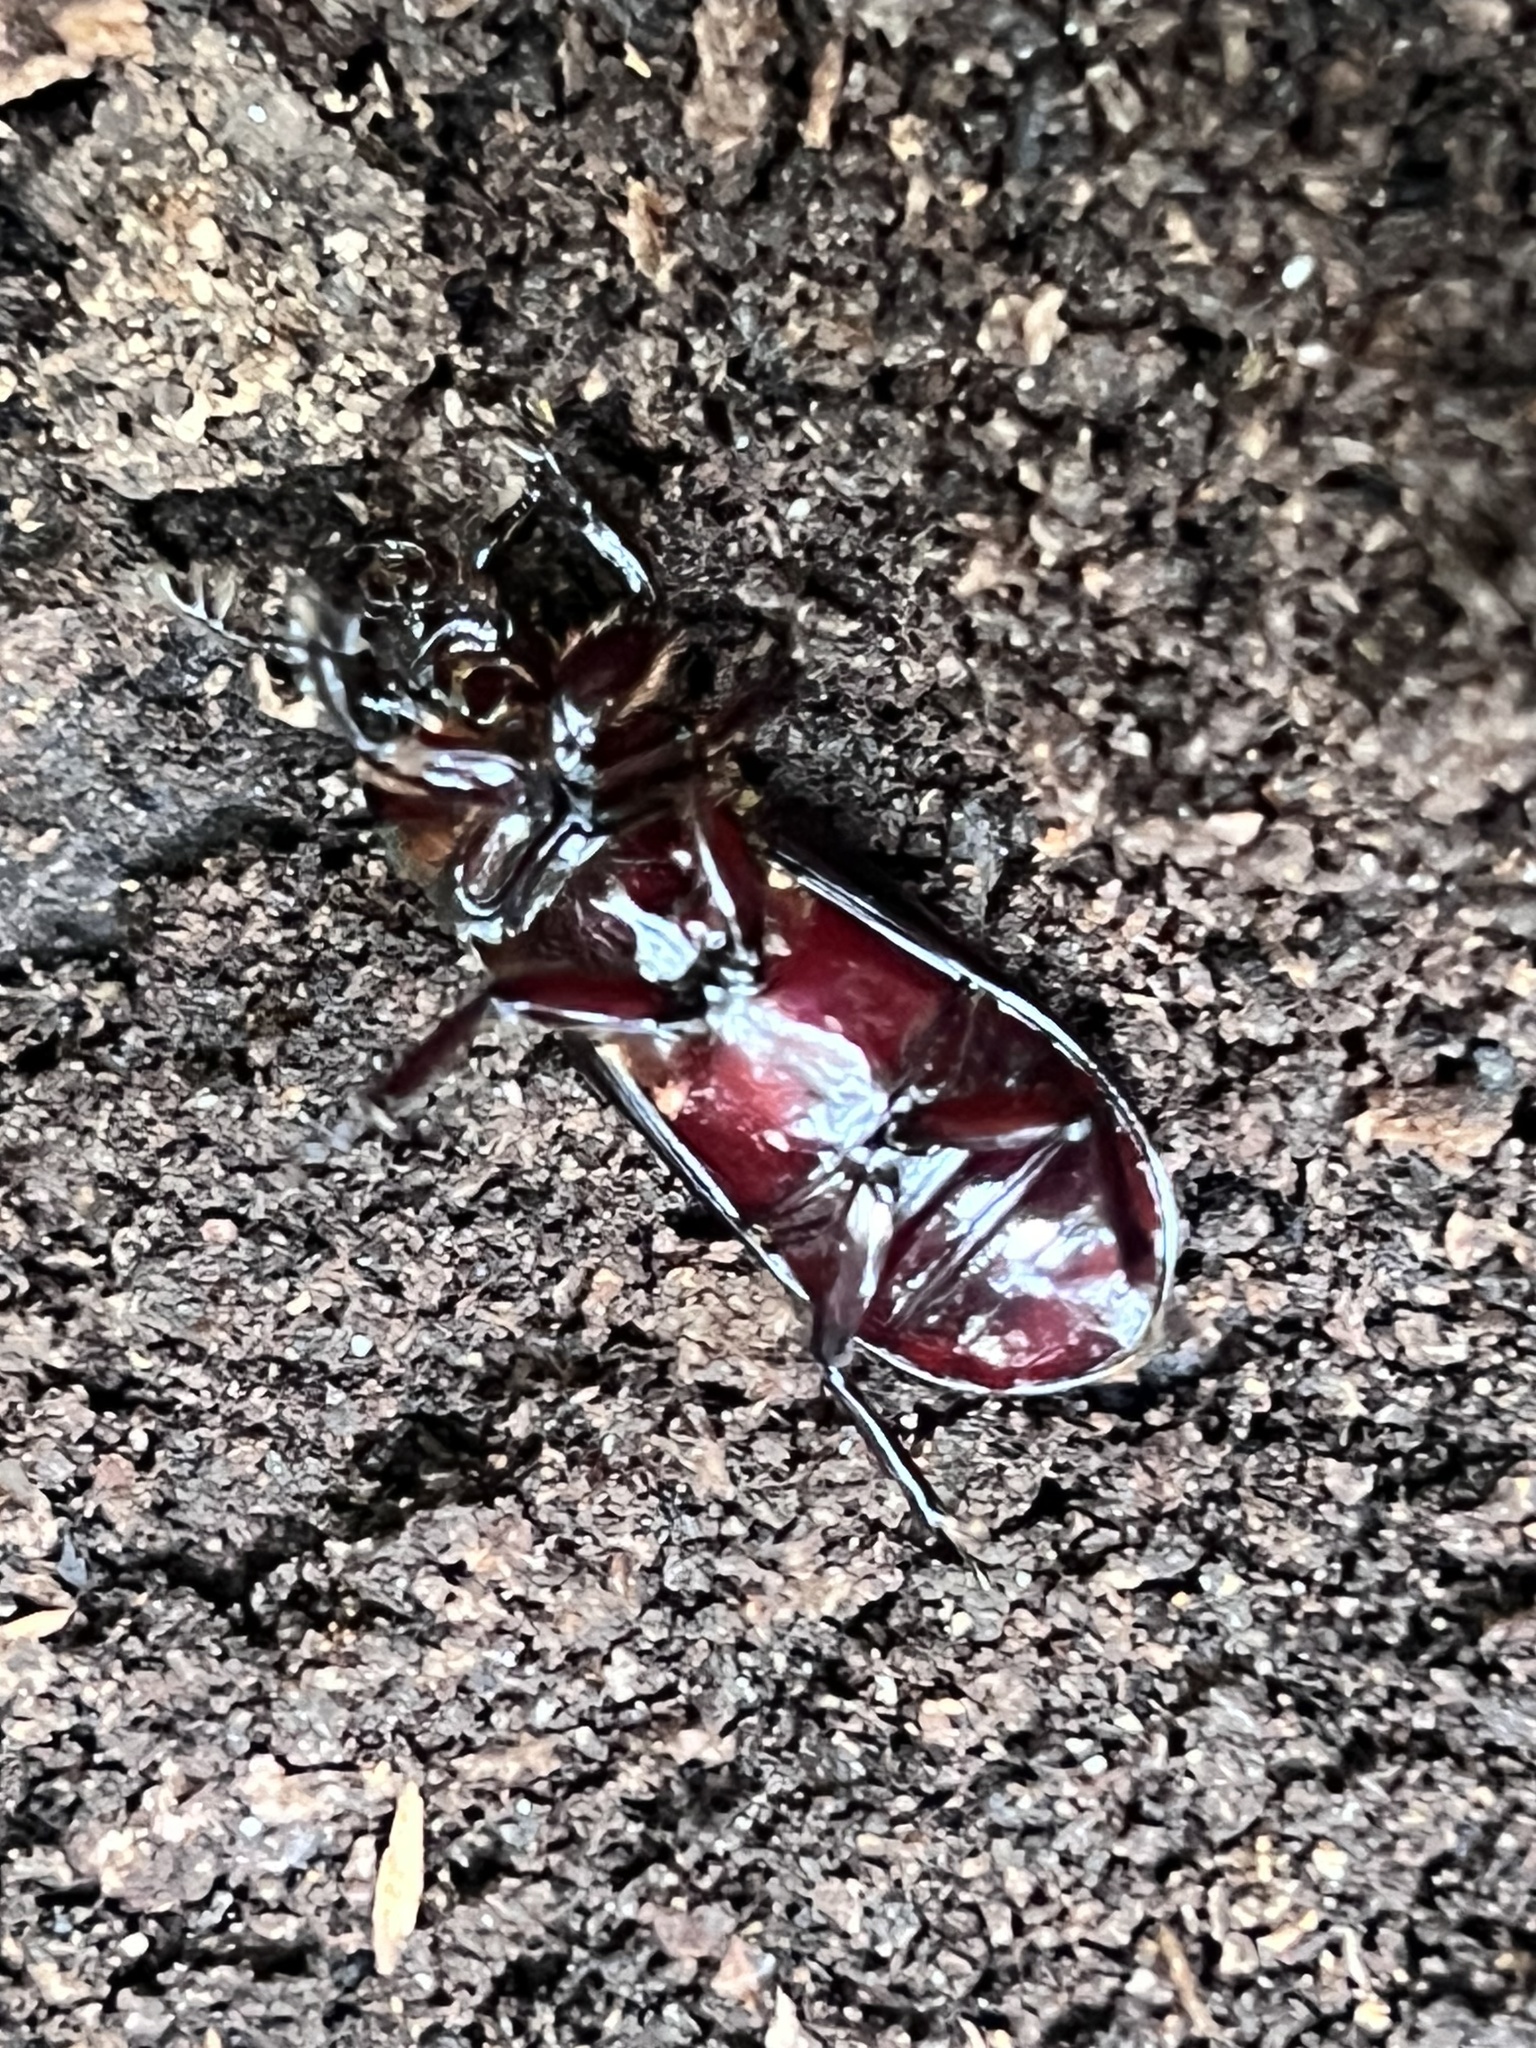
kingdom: Animalia
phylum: Arthropoda
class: Insecta
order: Coleoptera
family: Passalidae
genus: Aulacocyclus
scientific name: Aulacocyclus fracticornis
